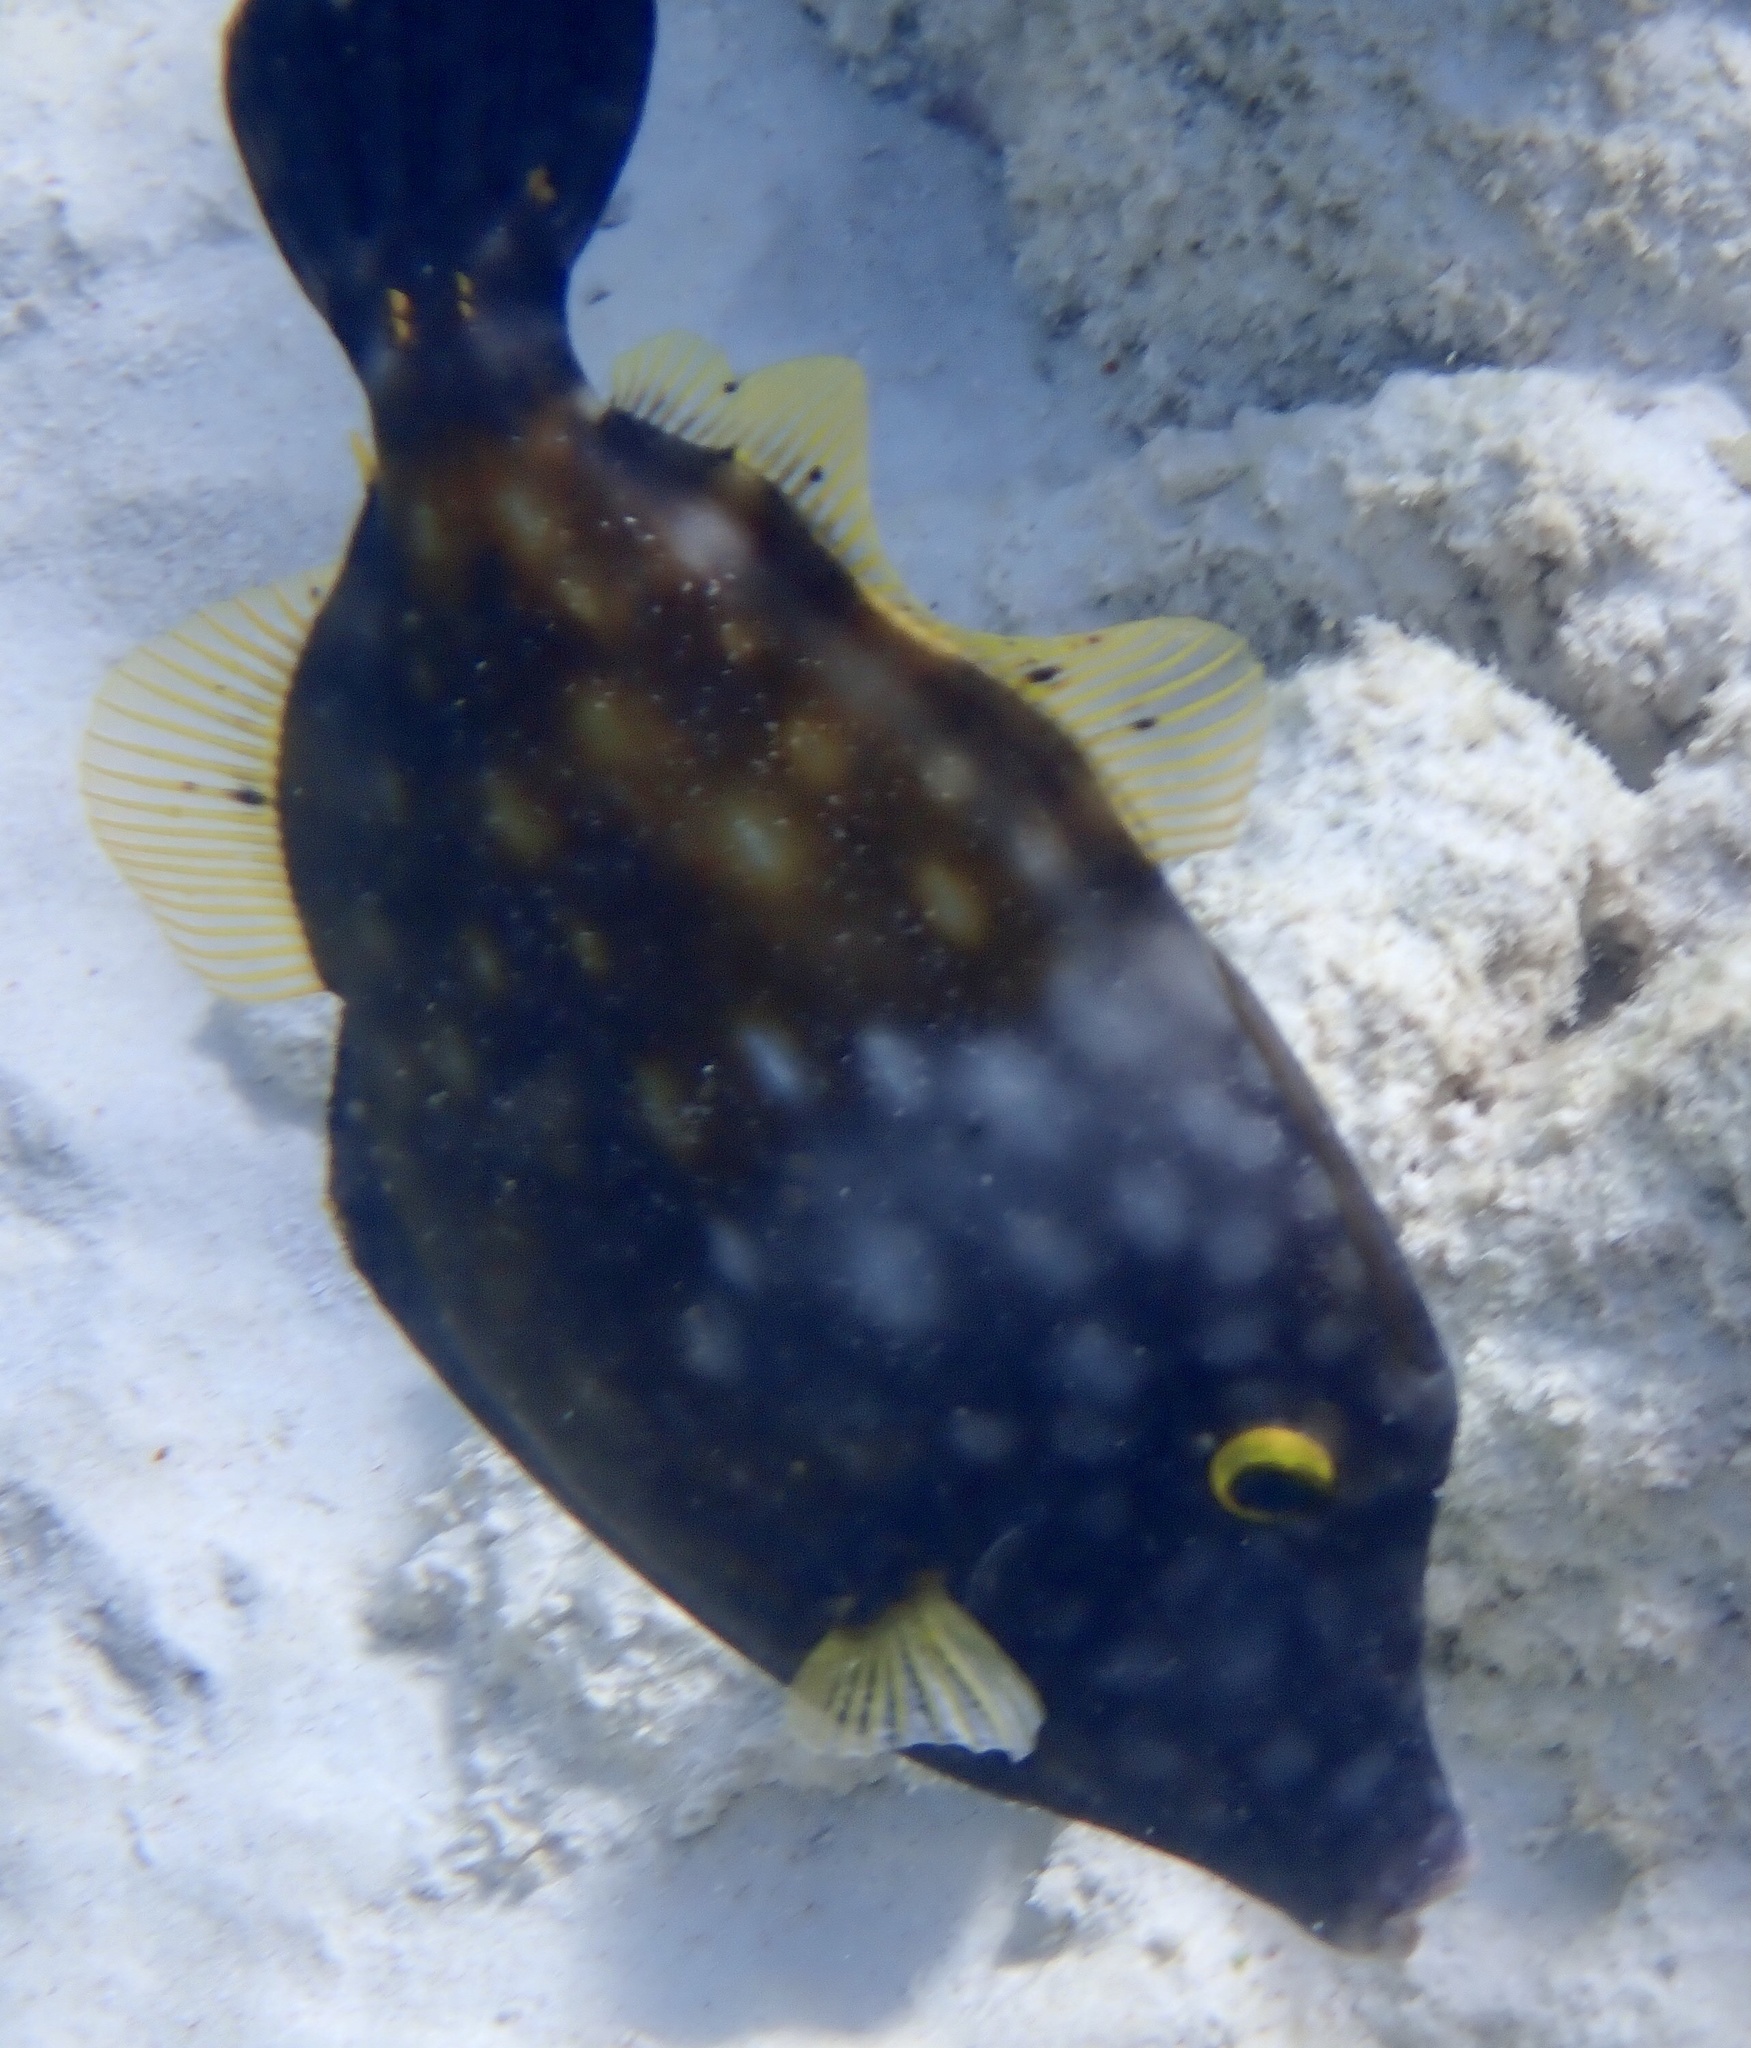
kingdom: Animalia
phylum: Chordata
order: Tetraodontiformes
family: Monacanthidae
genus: Cantherhines
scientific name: Cantherhines macrocerus
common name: Whitespotted filefish
